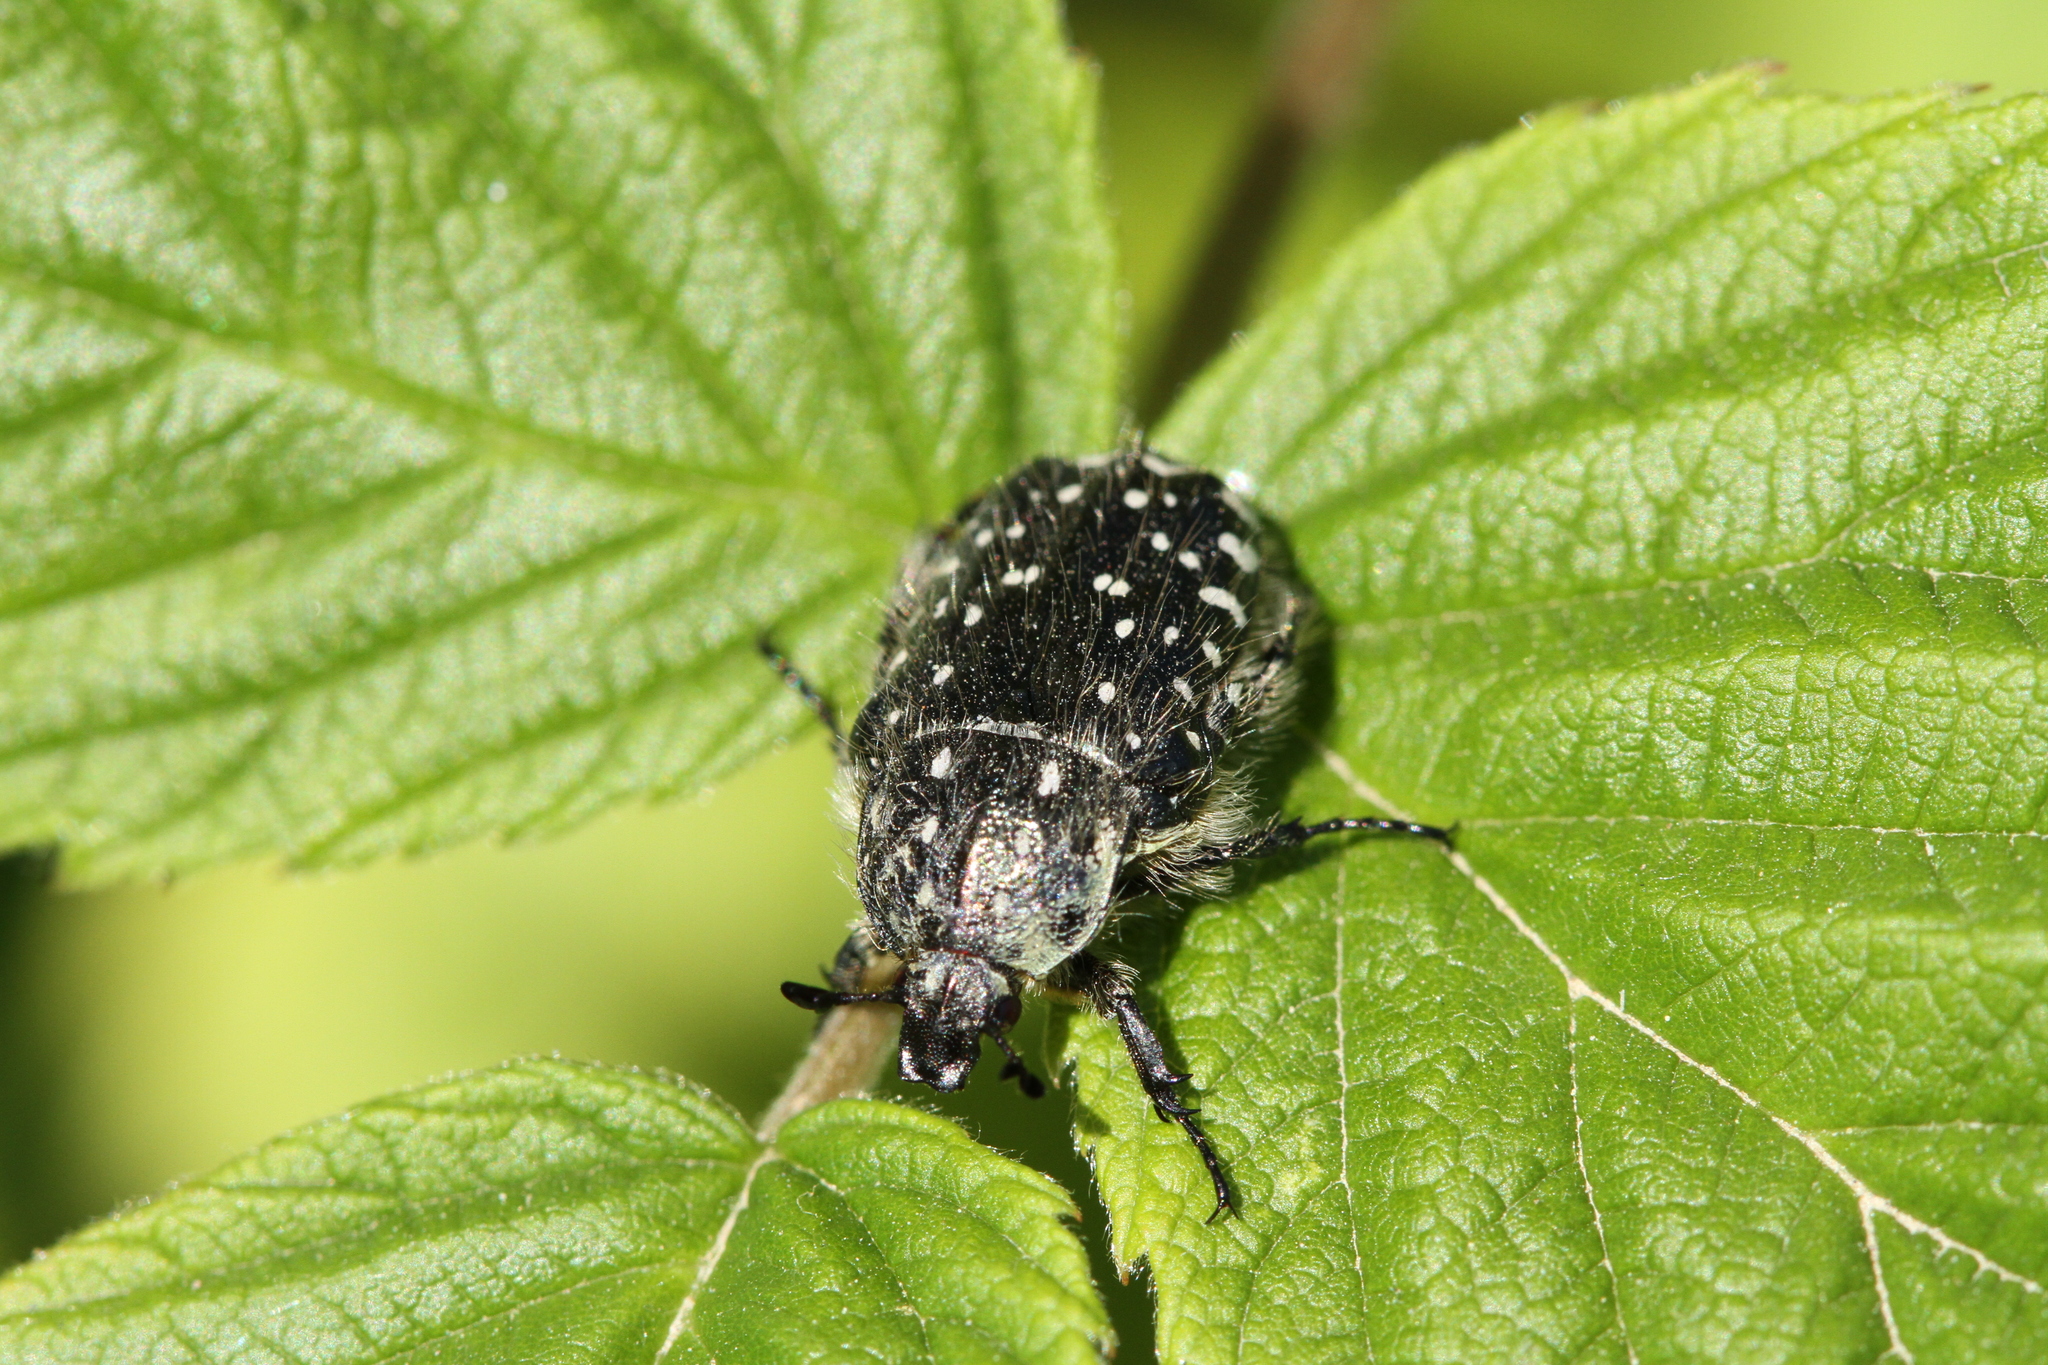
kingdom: Animalia
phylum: Arthropoda
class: Insecta
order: Coleoptera
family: Scarabaeidae
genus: Oxythyrea
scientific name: Oxythyrea funesta
